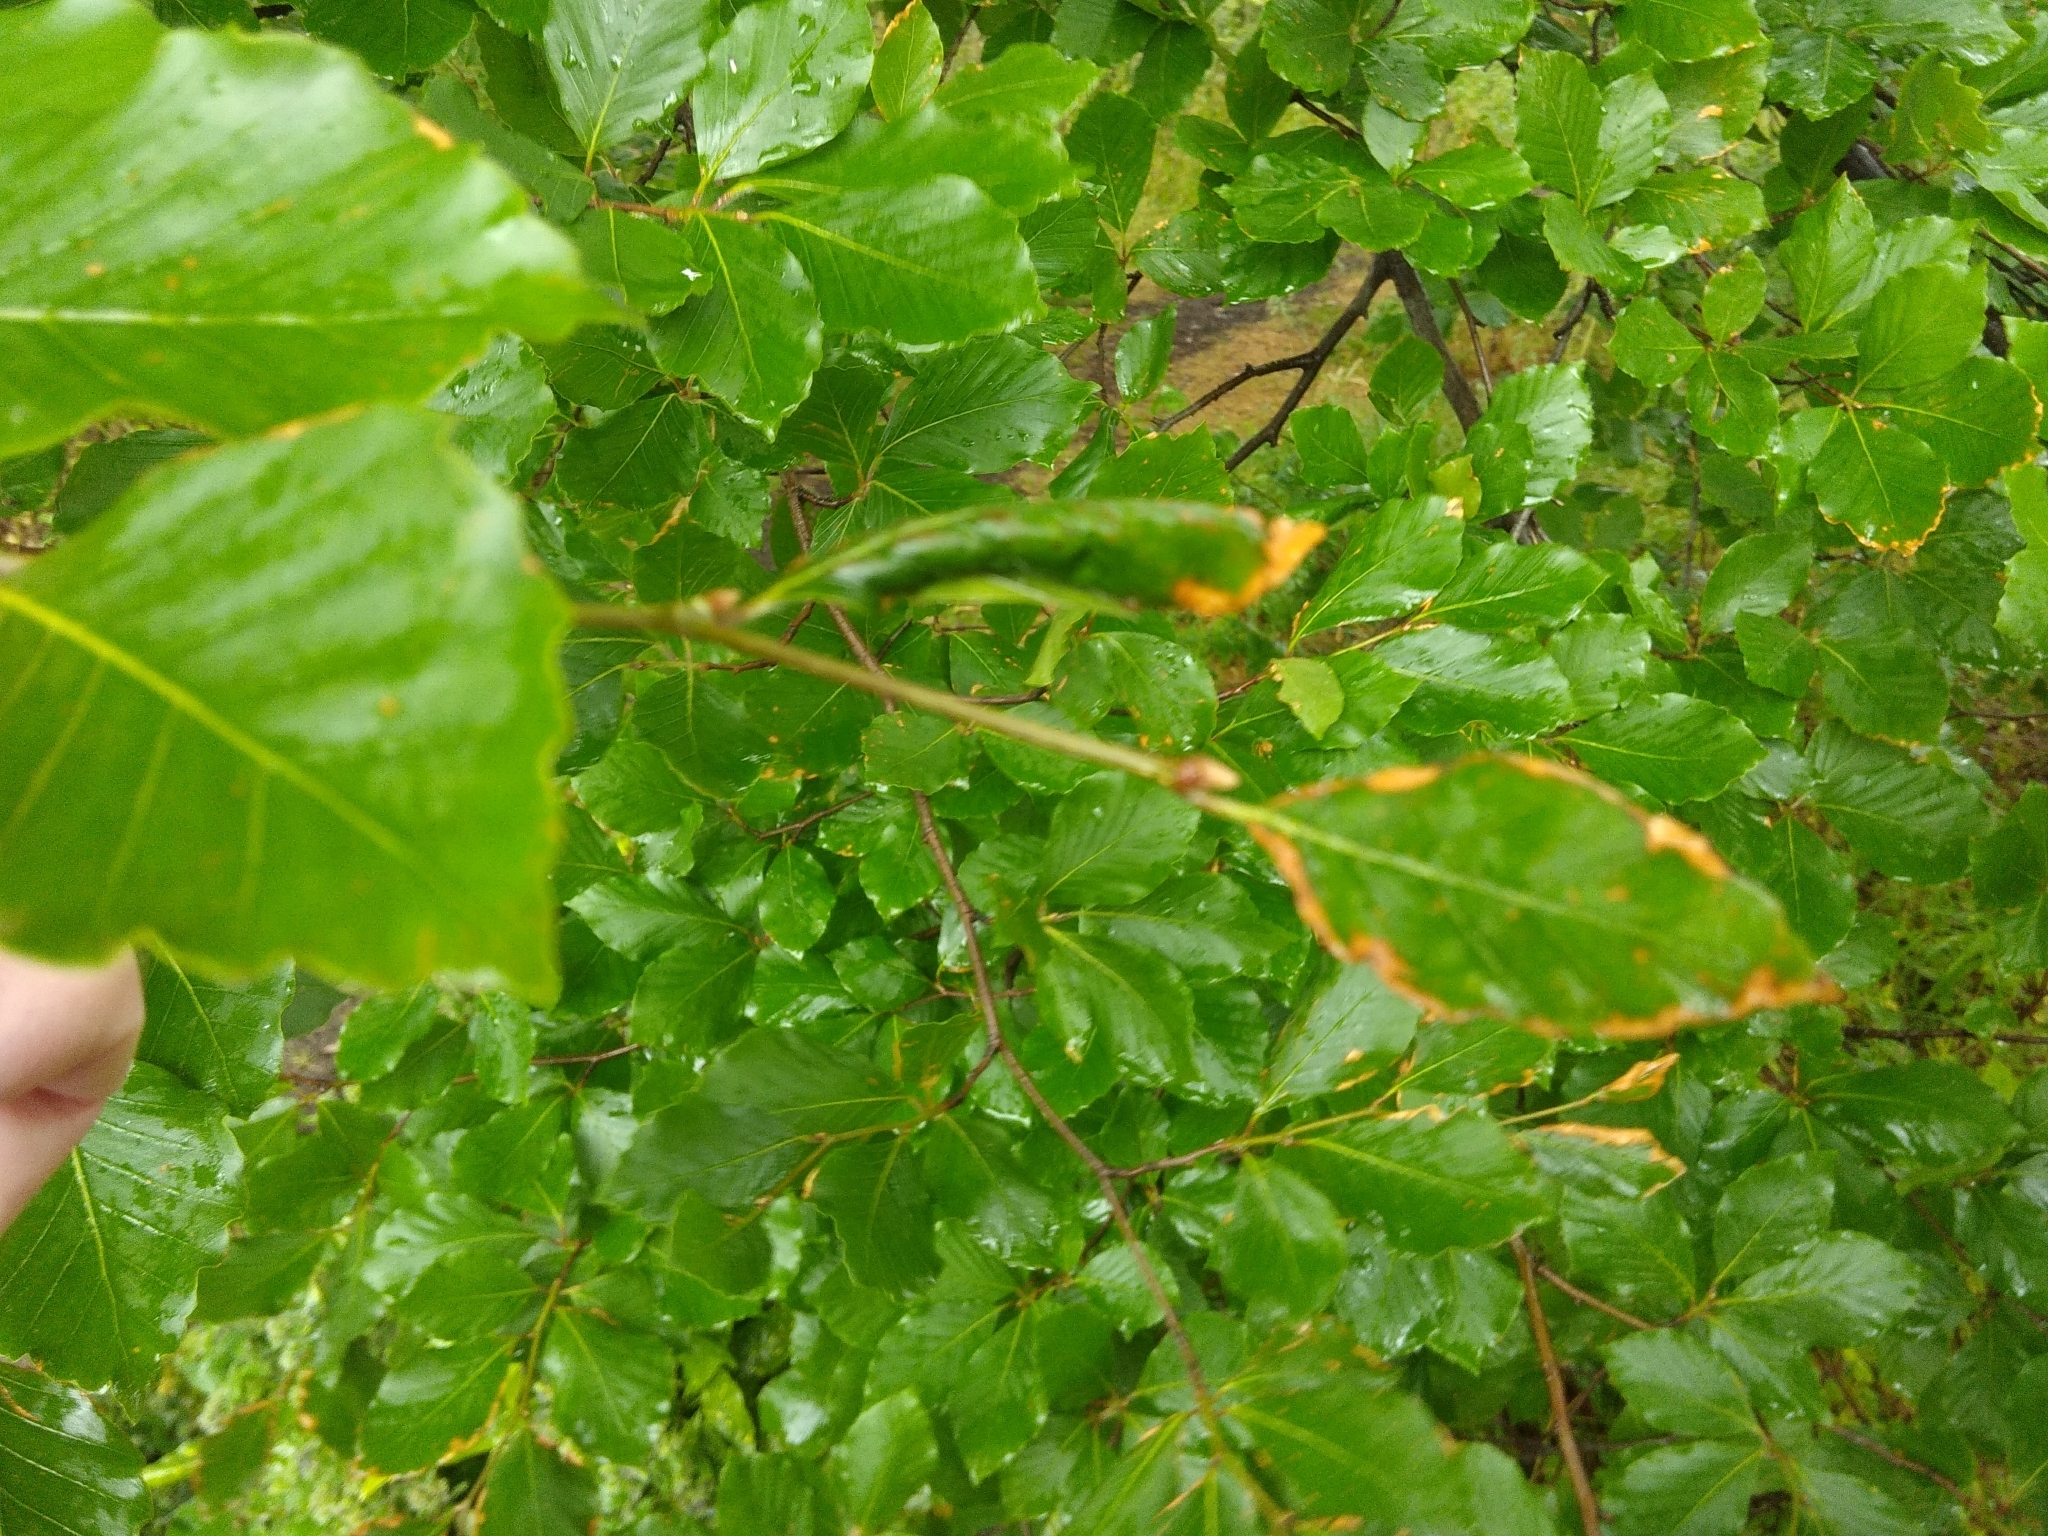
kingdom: Plantae
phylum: Tracheophyta
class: Magnoliopsida
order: Fagales
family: Fagaceae
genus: Fagus
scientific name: Fagus sylvatica
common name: Beech
